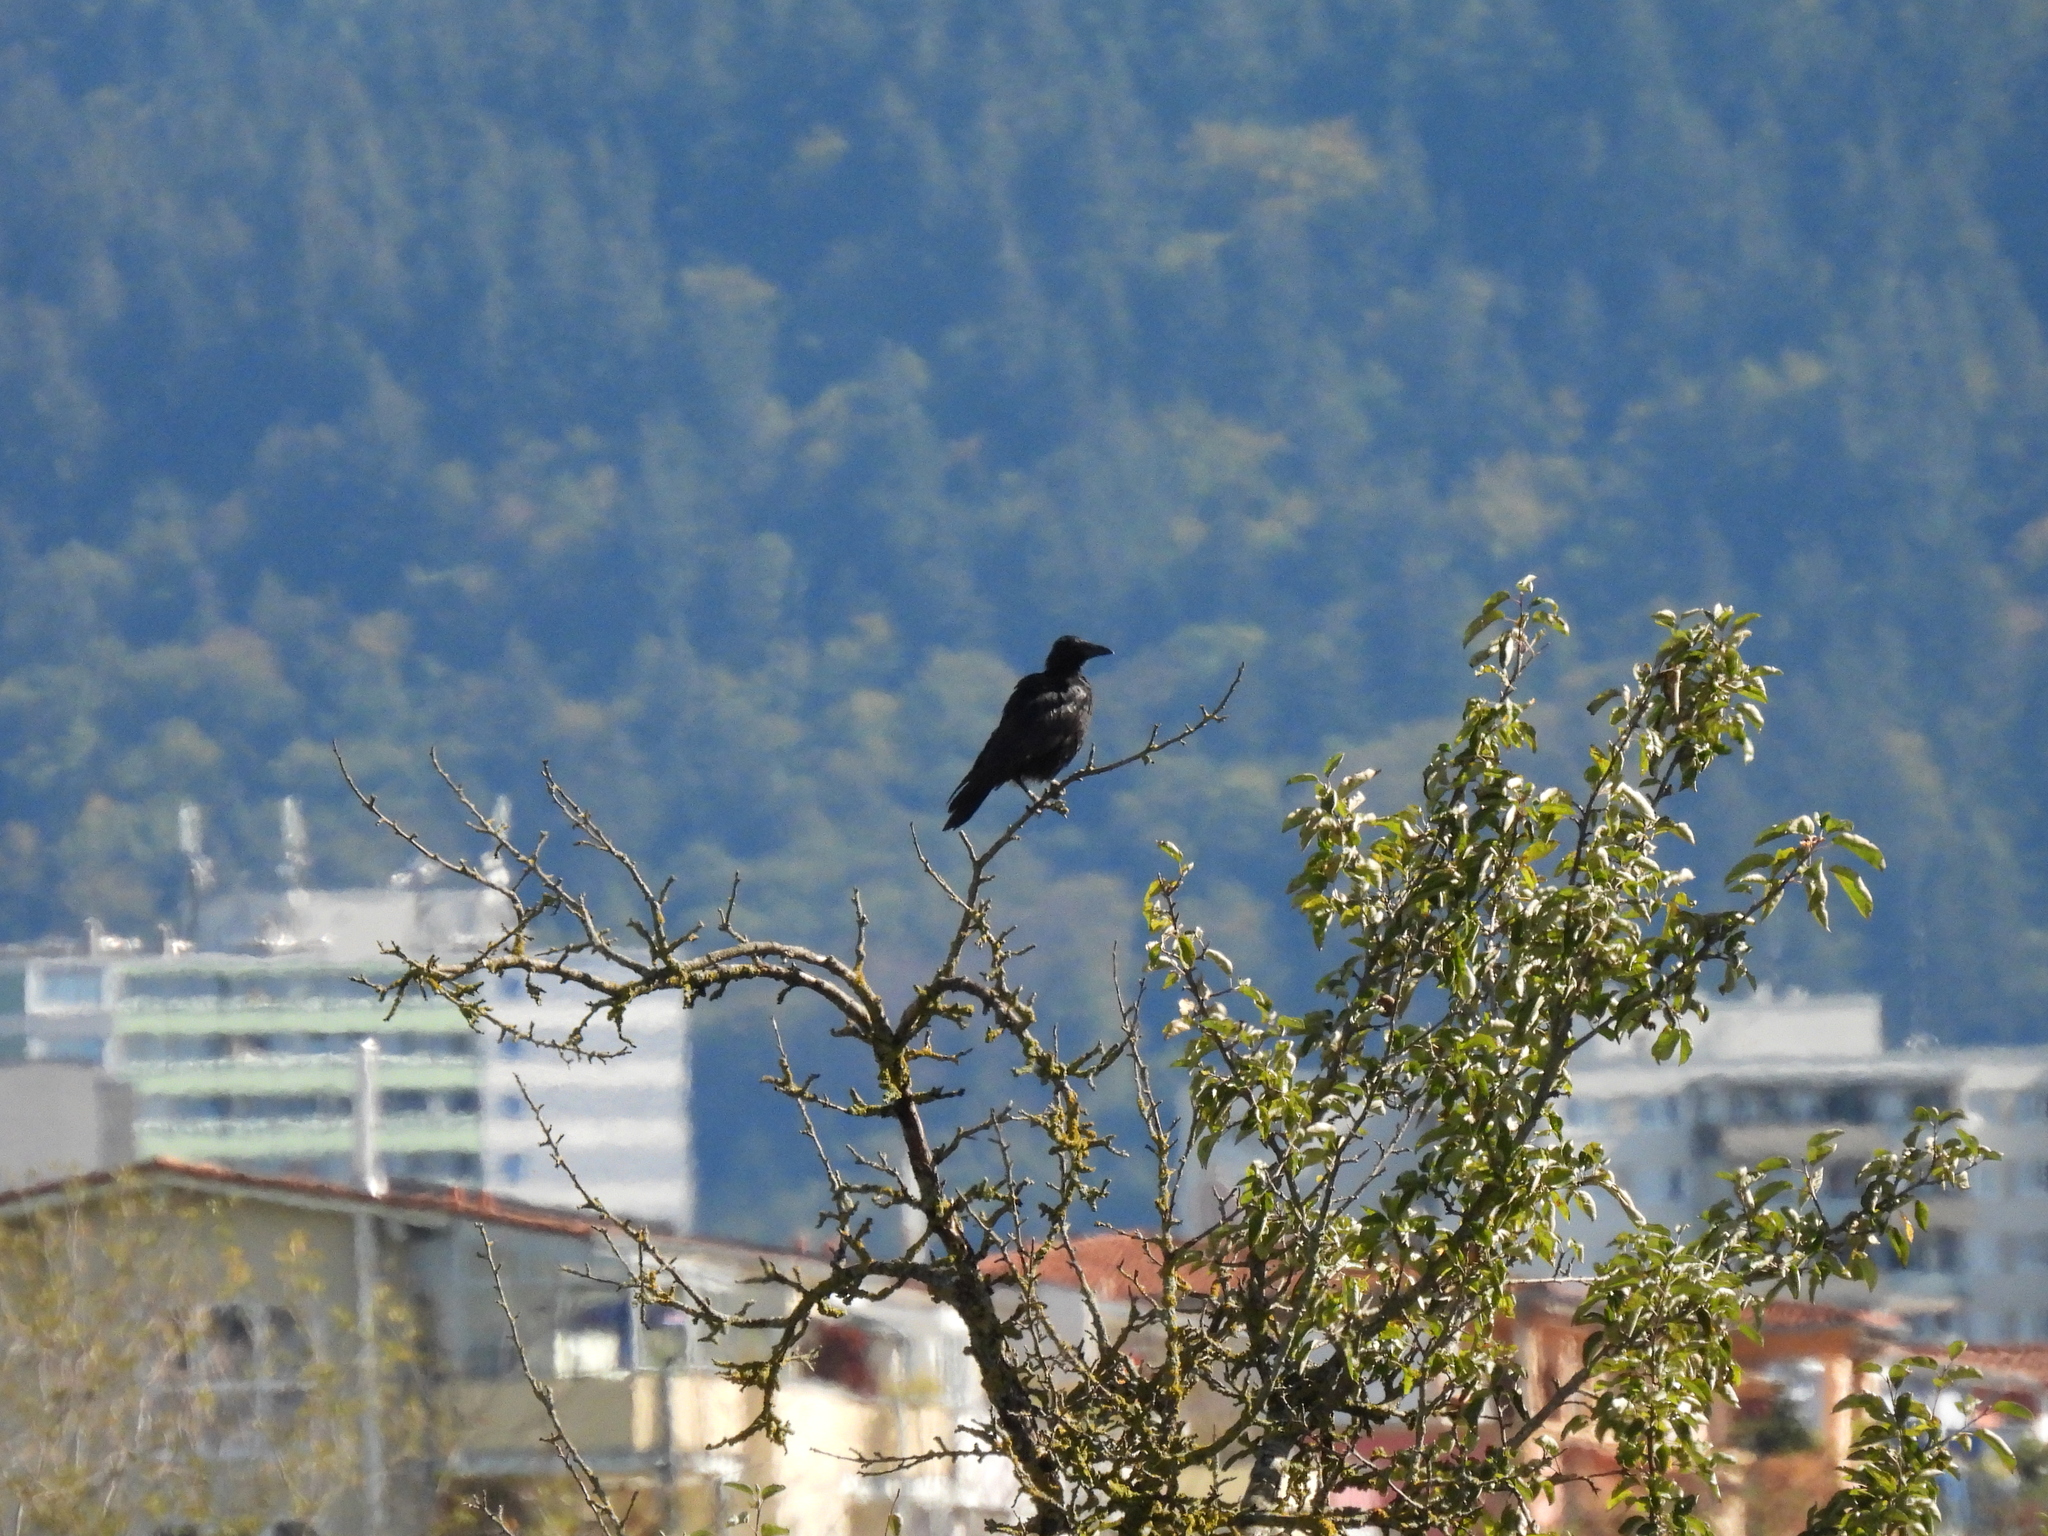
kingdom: Animalia
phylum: Chordata
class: Aves
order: Passeriformes
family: Corvidae
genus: Corvus
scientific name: Corvus corone
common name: Carrion crow
